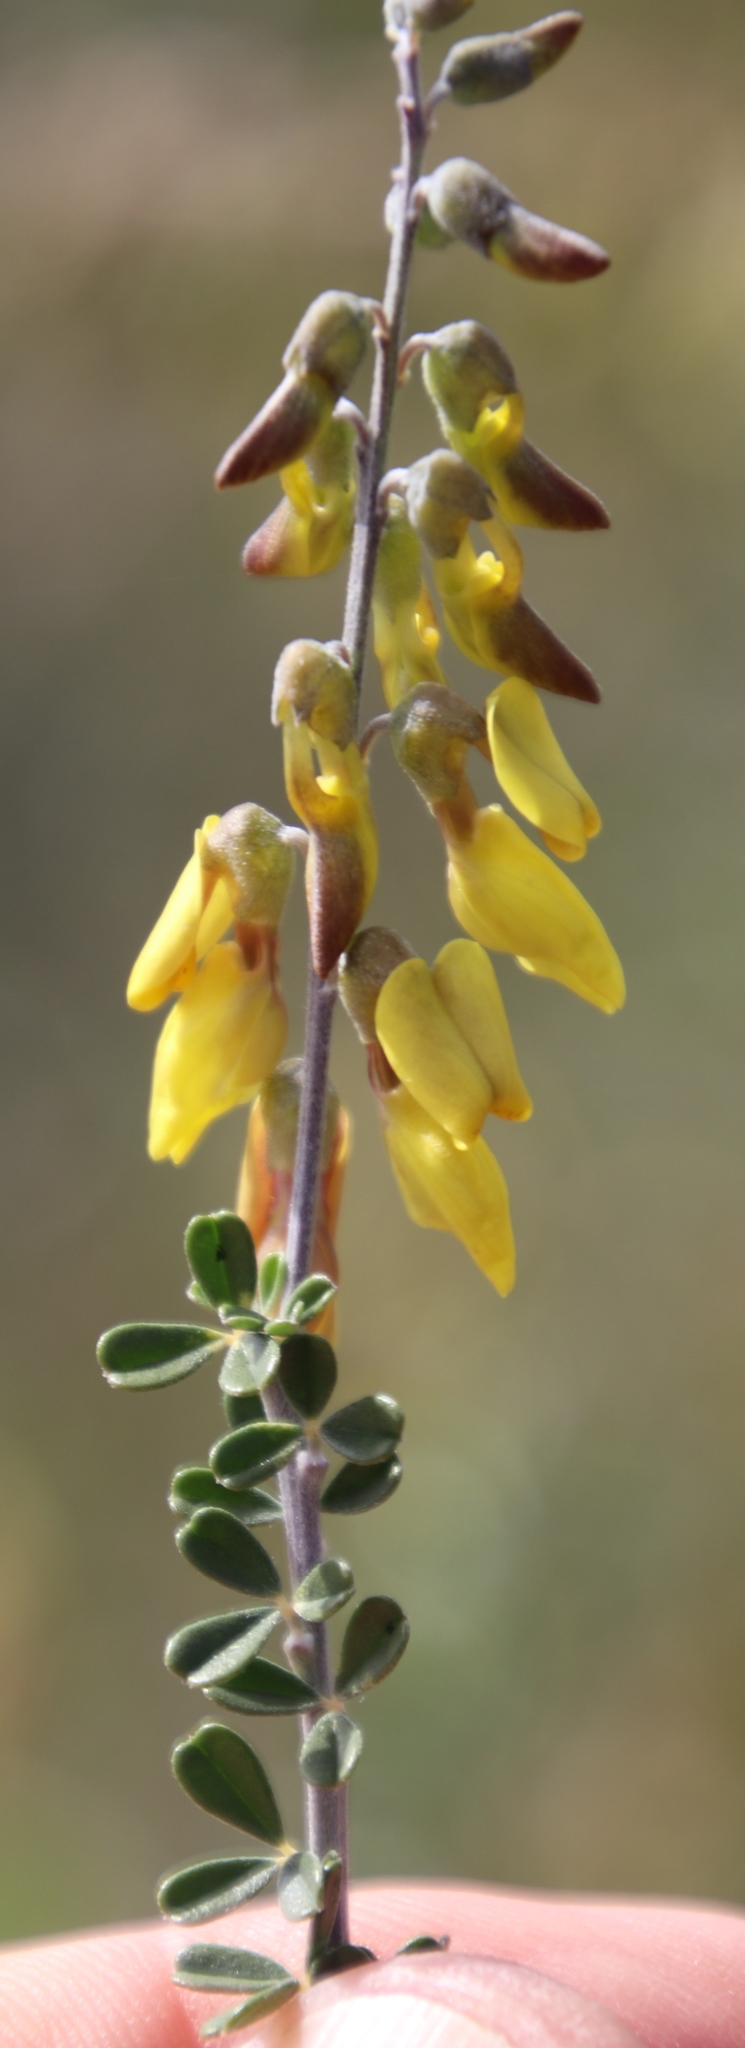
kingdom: Plantae
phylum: Tracheophyta
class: Magnoliopsida
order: Fabales
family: Fabaceae
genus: Wiborgia
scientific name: Wiborgia obcordata
